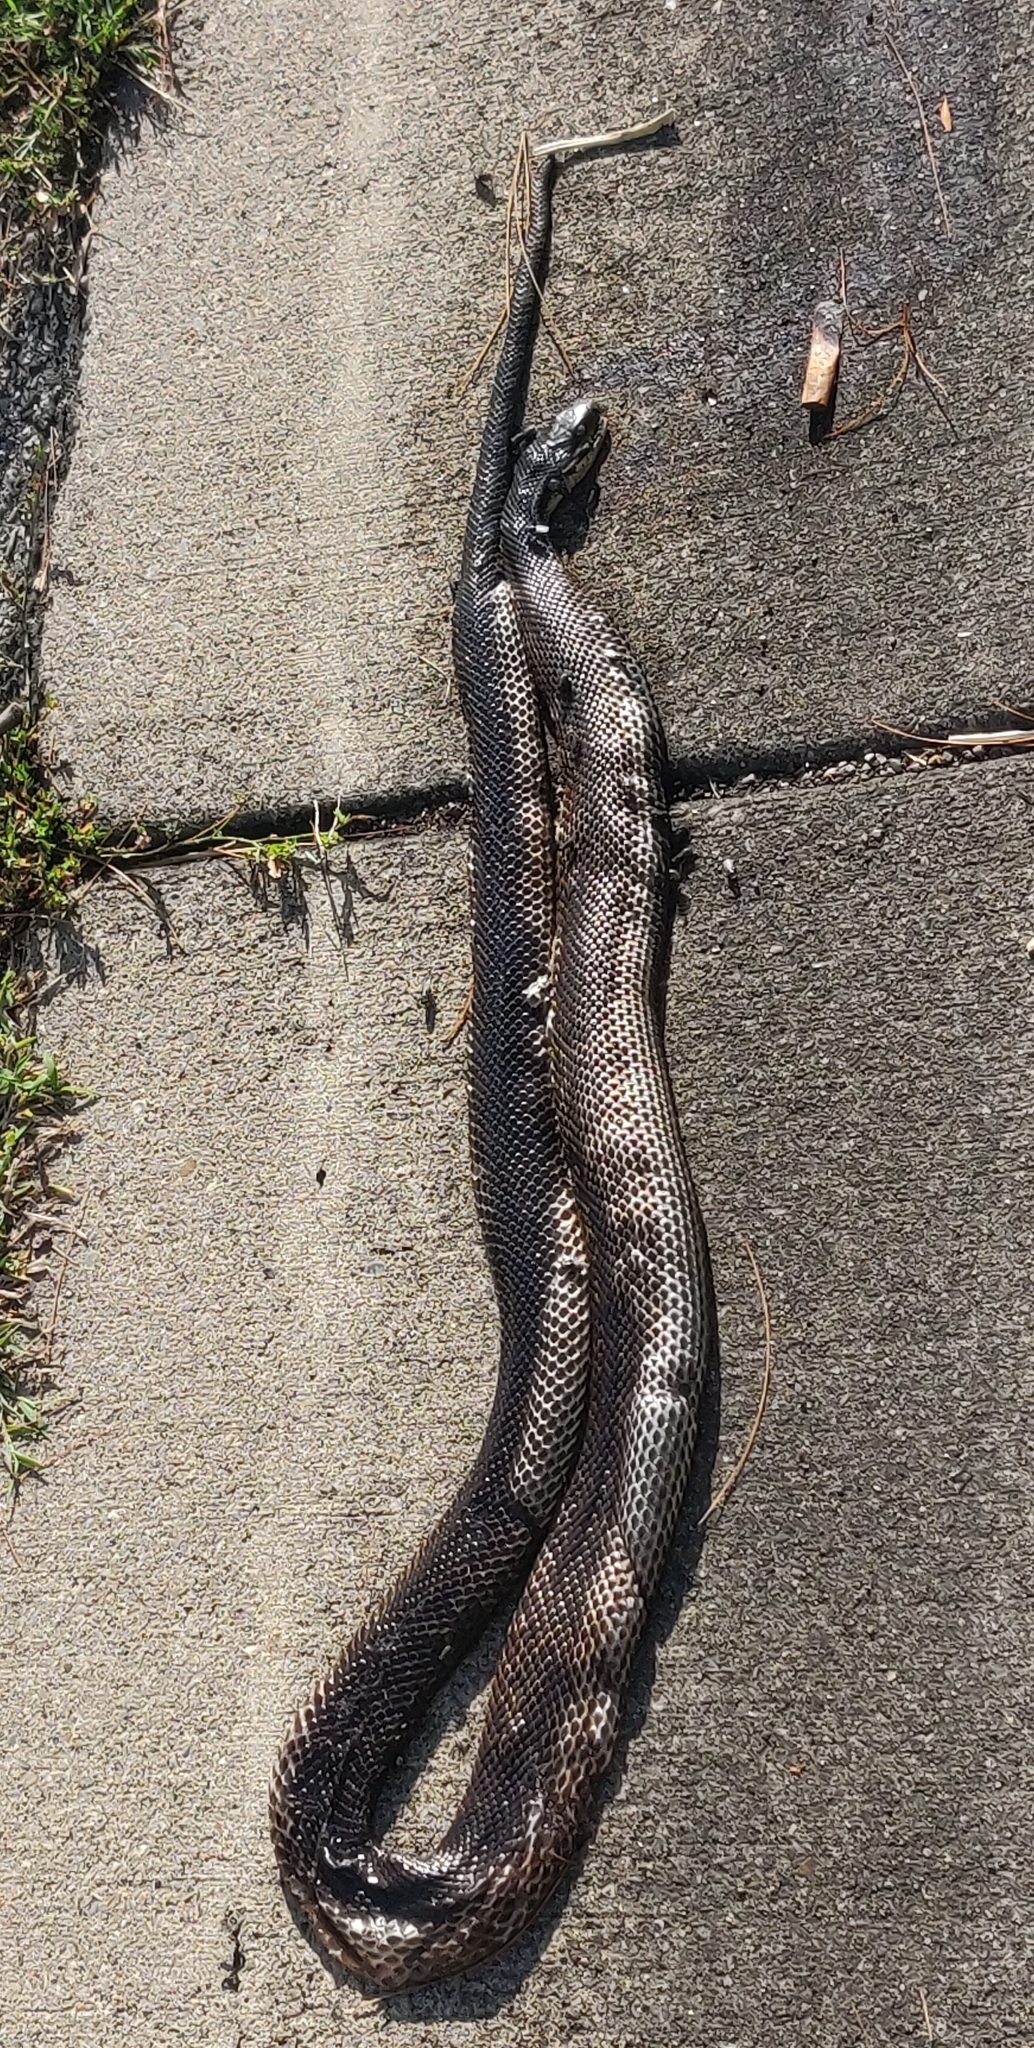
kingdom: Animalia
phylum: Chordata
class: Squamata
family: Colubridae
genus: Pantherophis
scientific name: Pantherophis spiloides
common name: Gray rat snake
